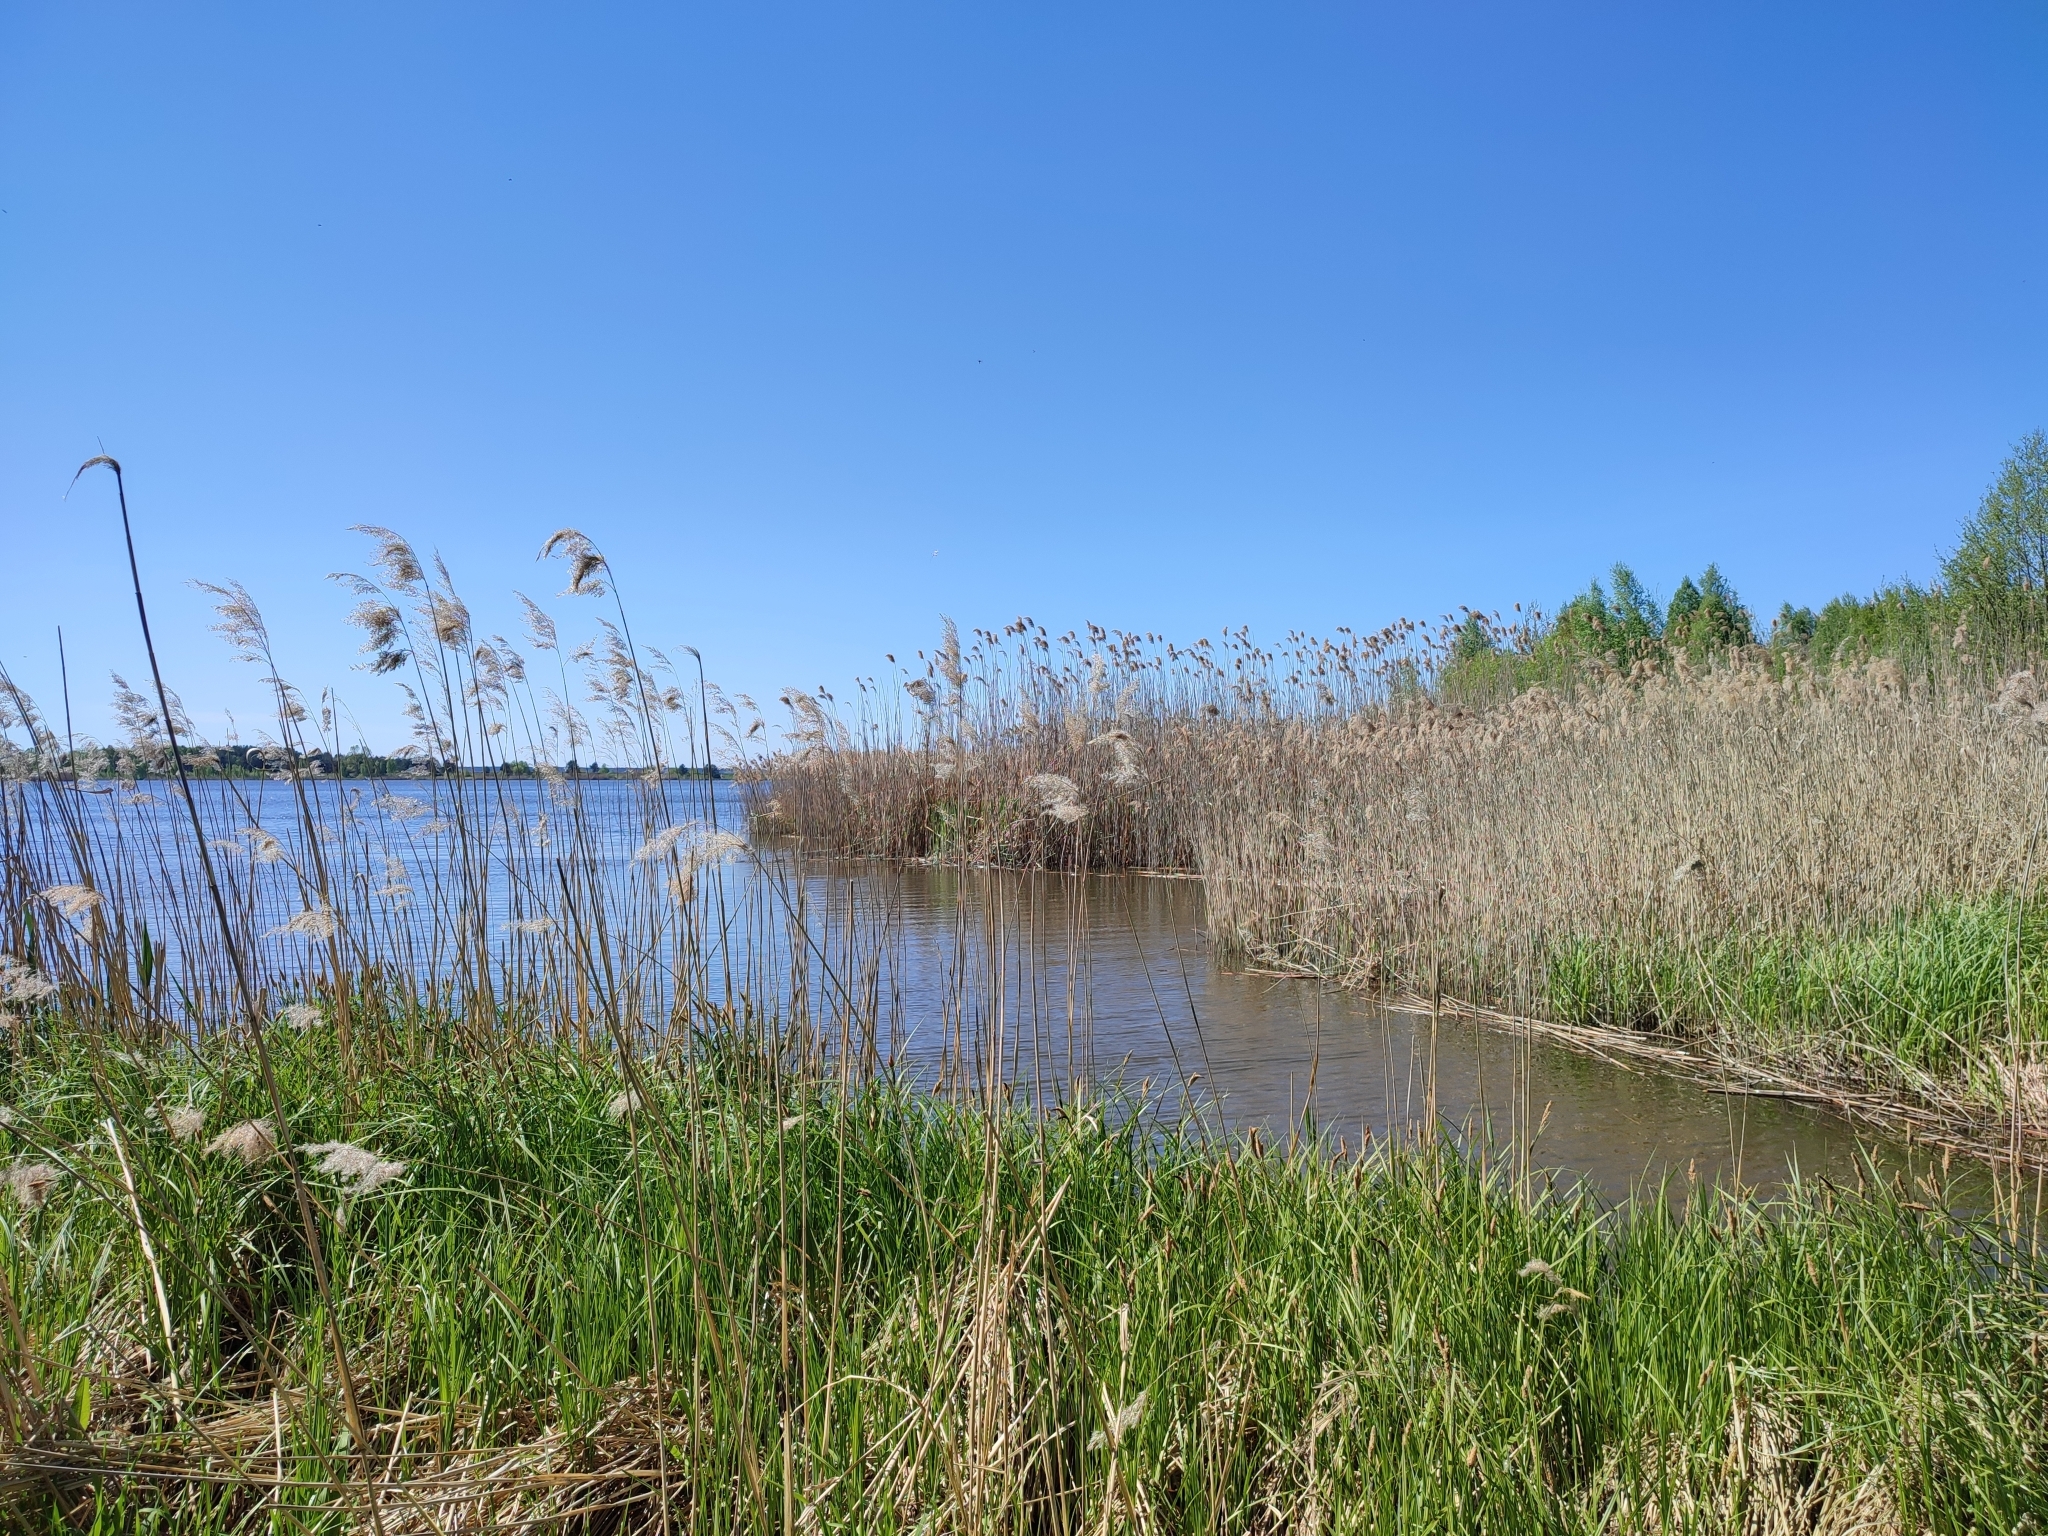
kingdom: Plantae
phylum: Tracheophyta
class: Liliopsida
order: Poales
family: Poaceae
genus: Phragmites
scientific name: Phragmites australis
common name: Common reed
